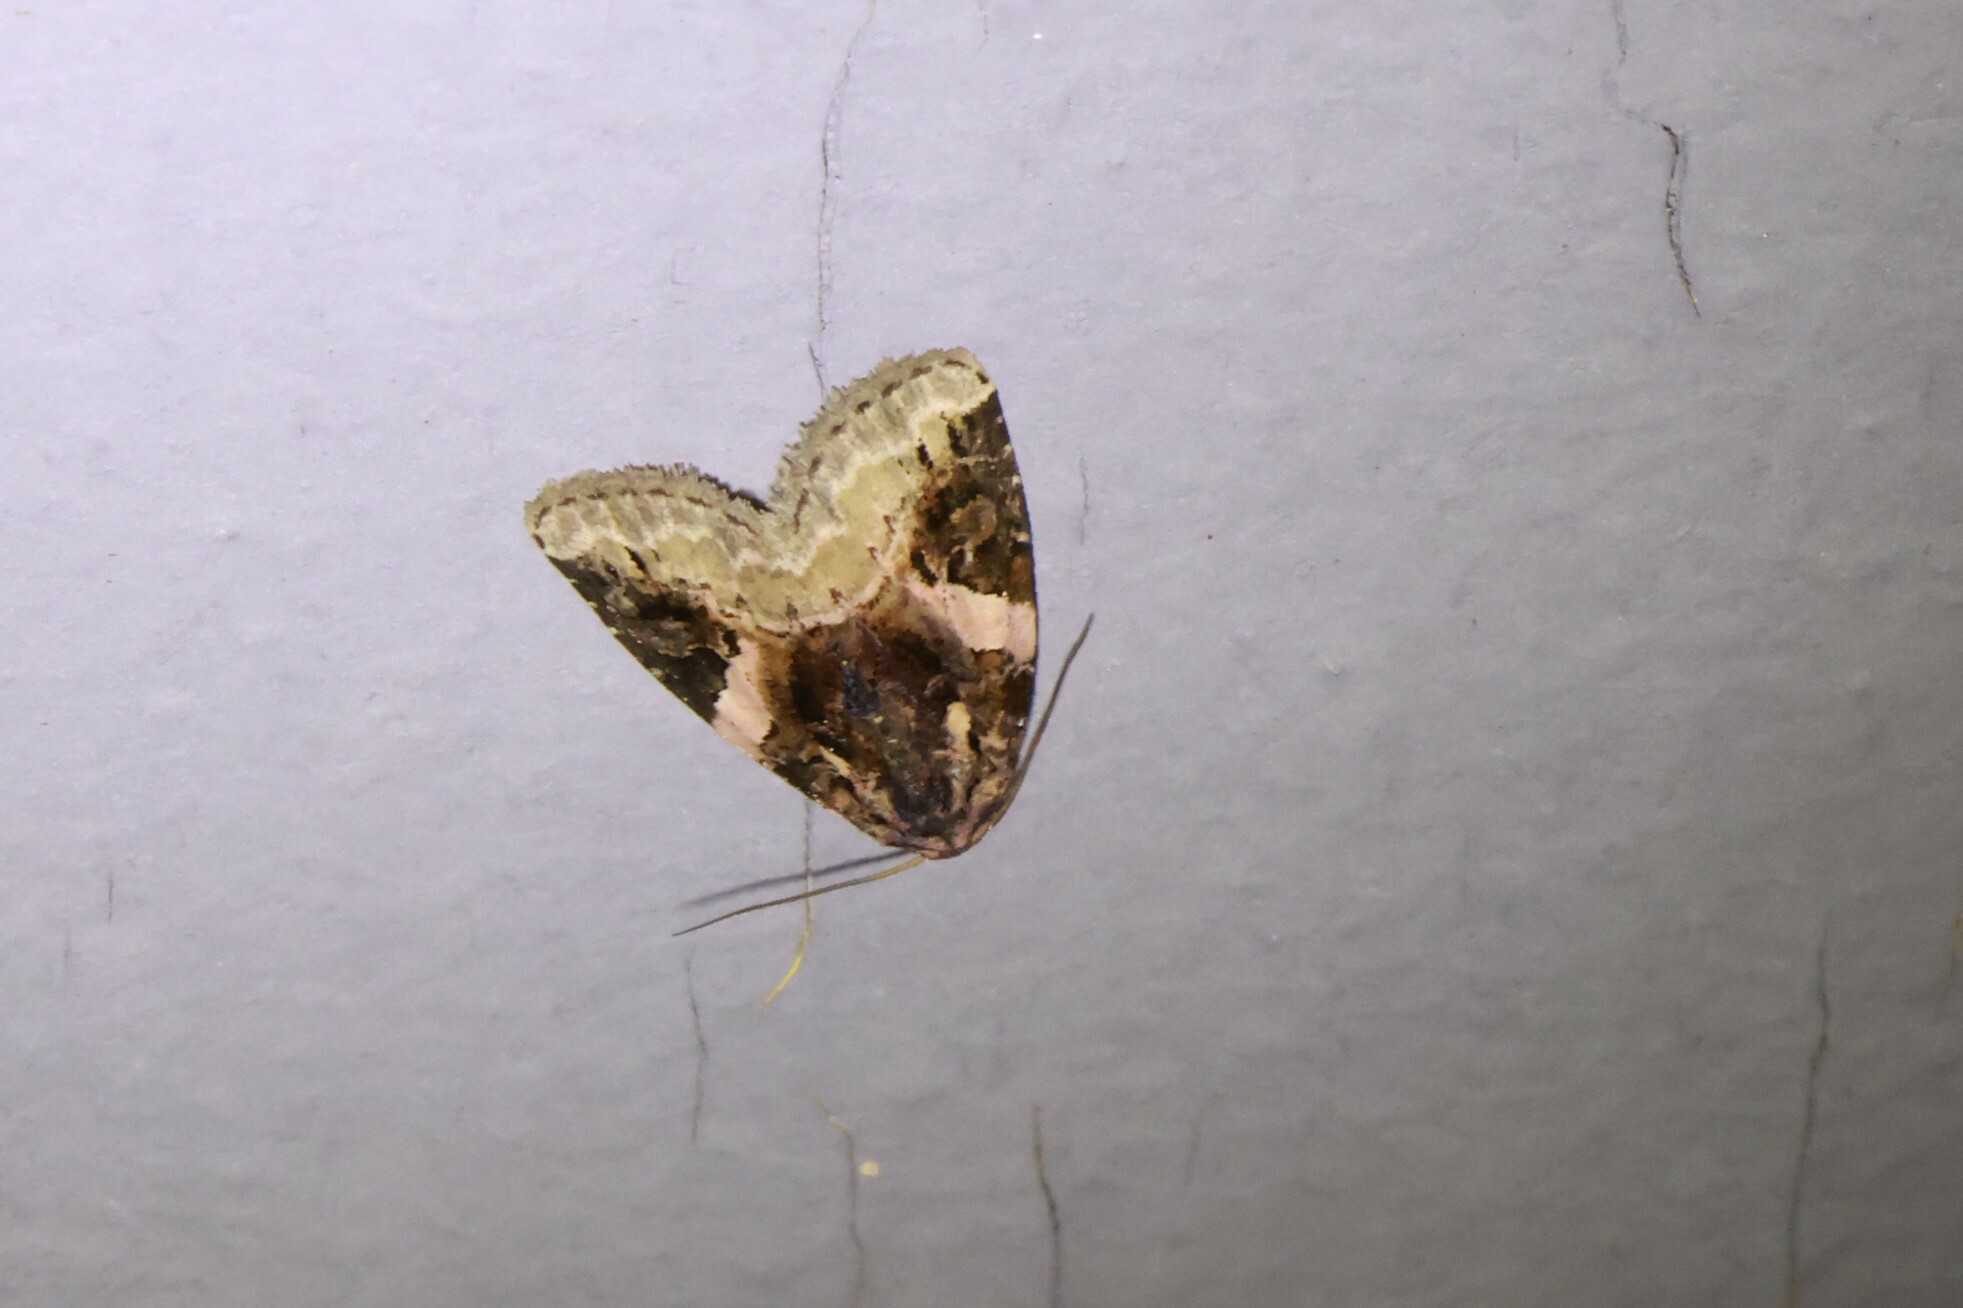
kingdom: Animalia
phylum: Arthropoda
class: Insecta
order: Lepidoptera
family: Noctuidae
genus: Pseudeustrotia
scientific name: Pseudeustrotia carneola
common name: Pink-barred lithacodia moth
